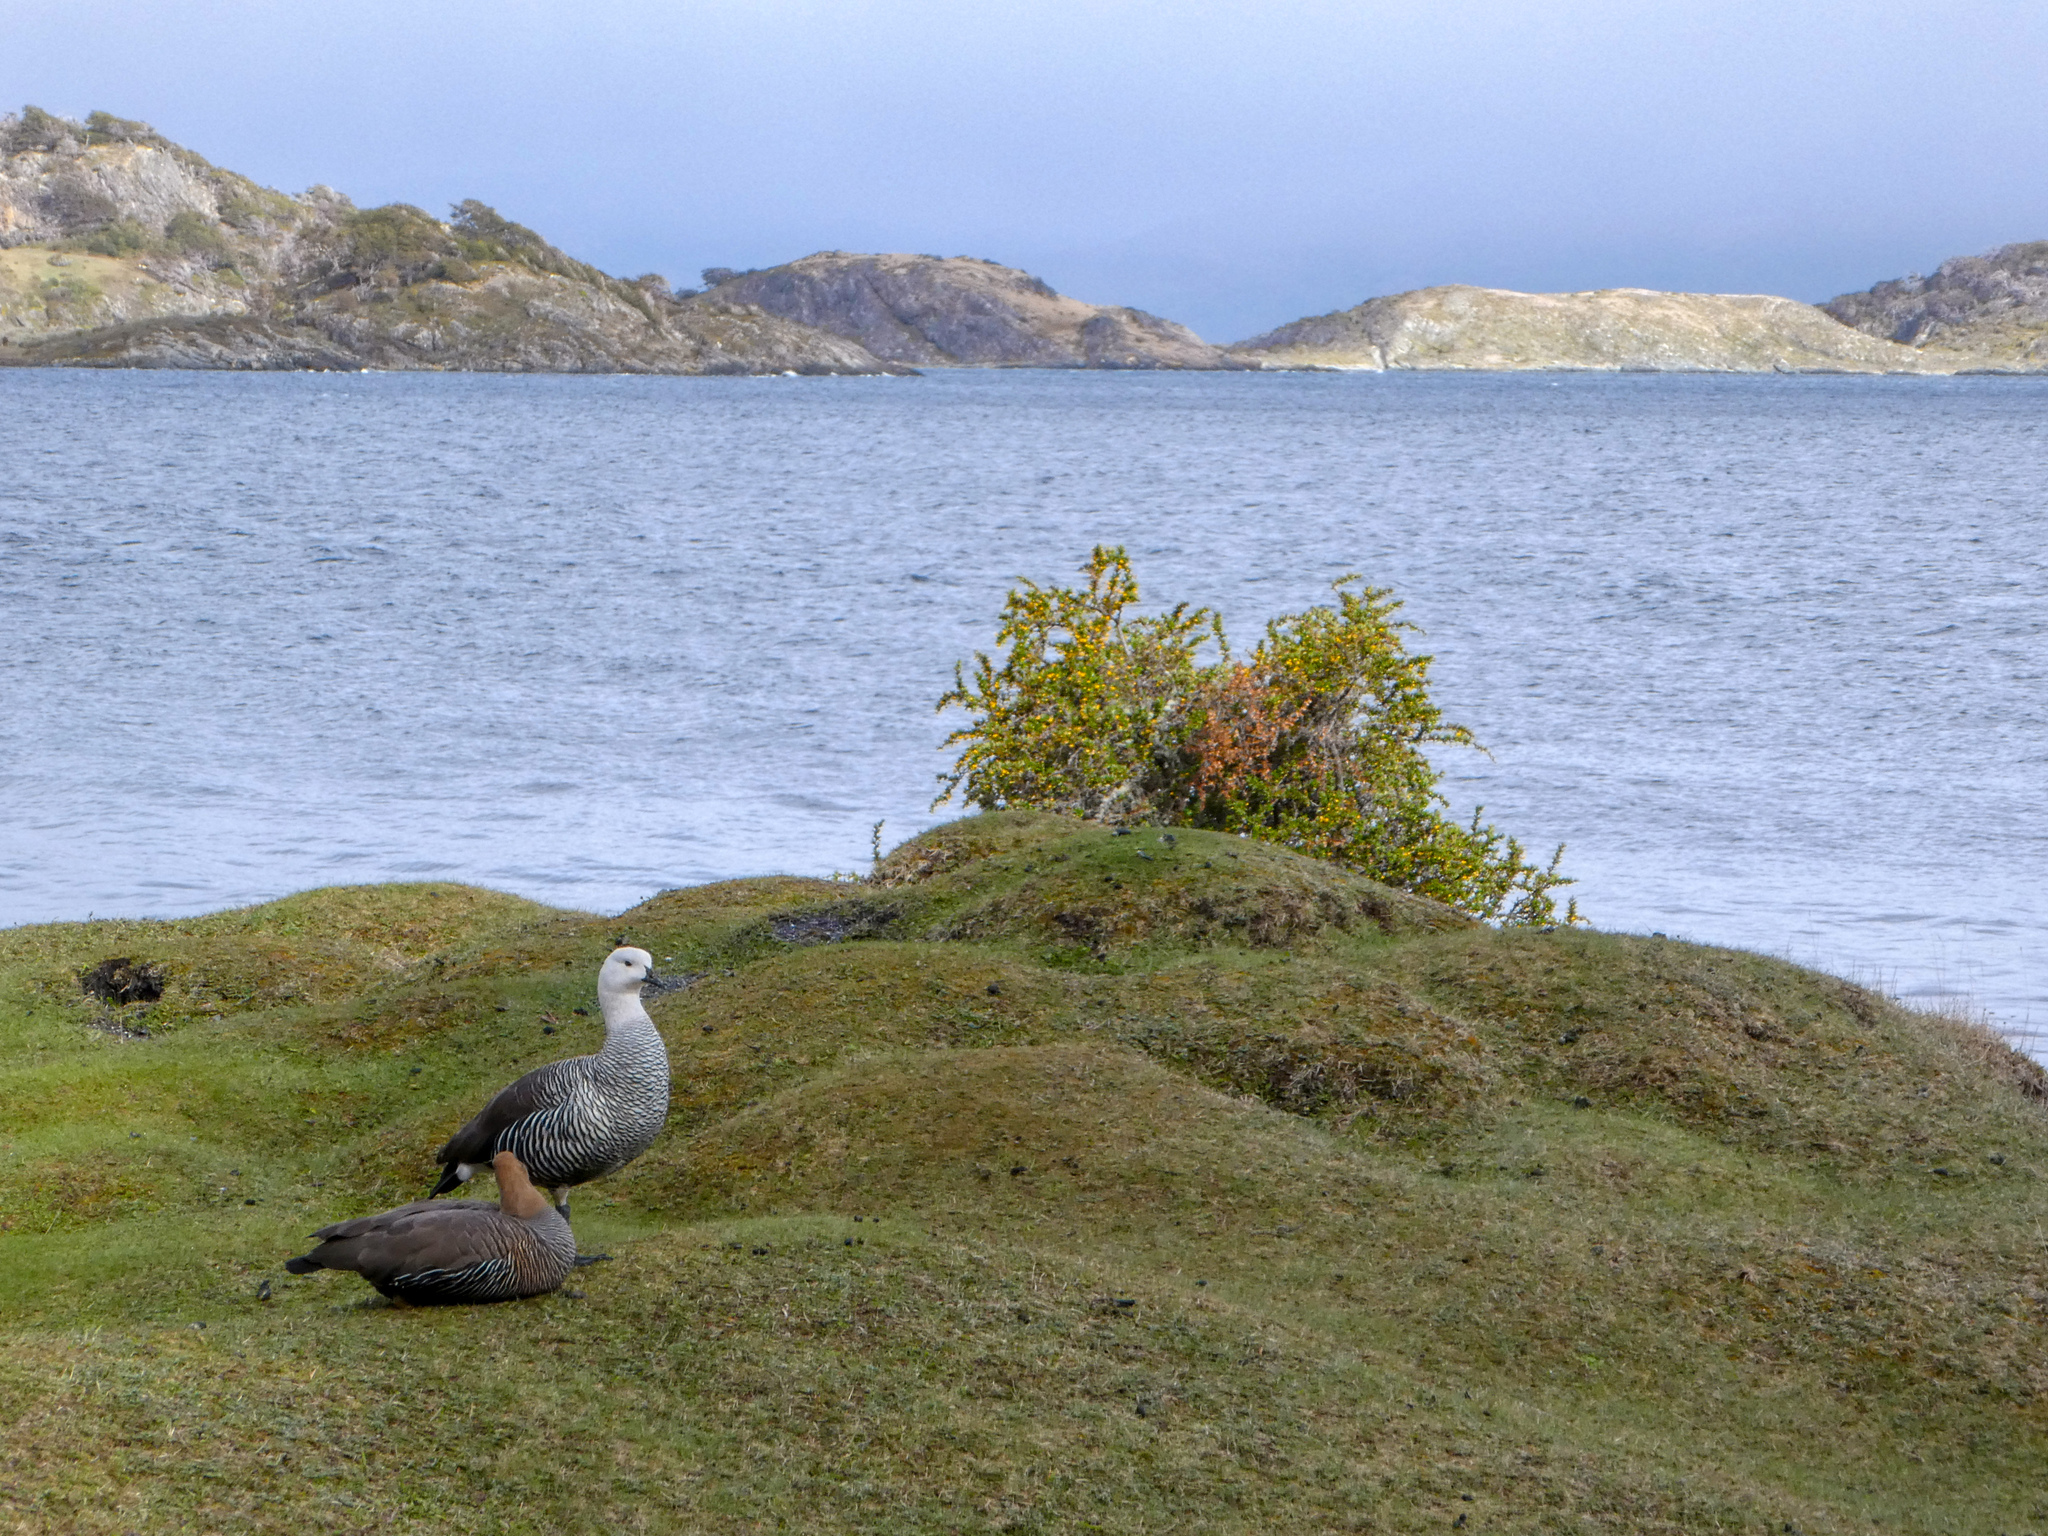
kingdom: Animalia
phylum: Chordata
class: Aves
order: Anseriformes
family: Anatidae
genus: Chloephaga
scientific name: Chloephaga picta
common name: Upland goose
